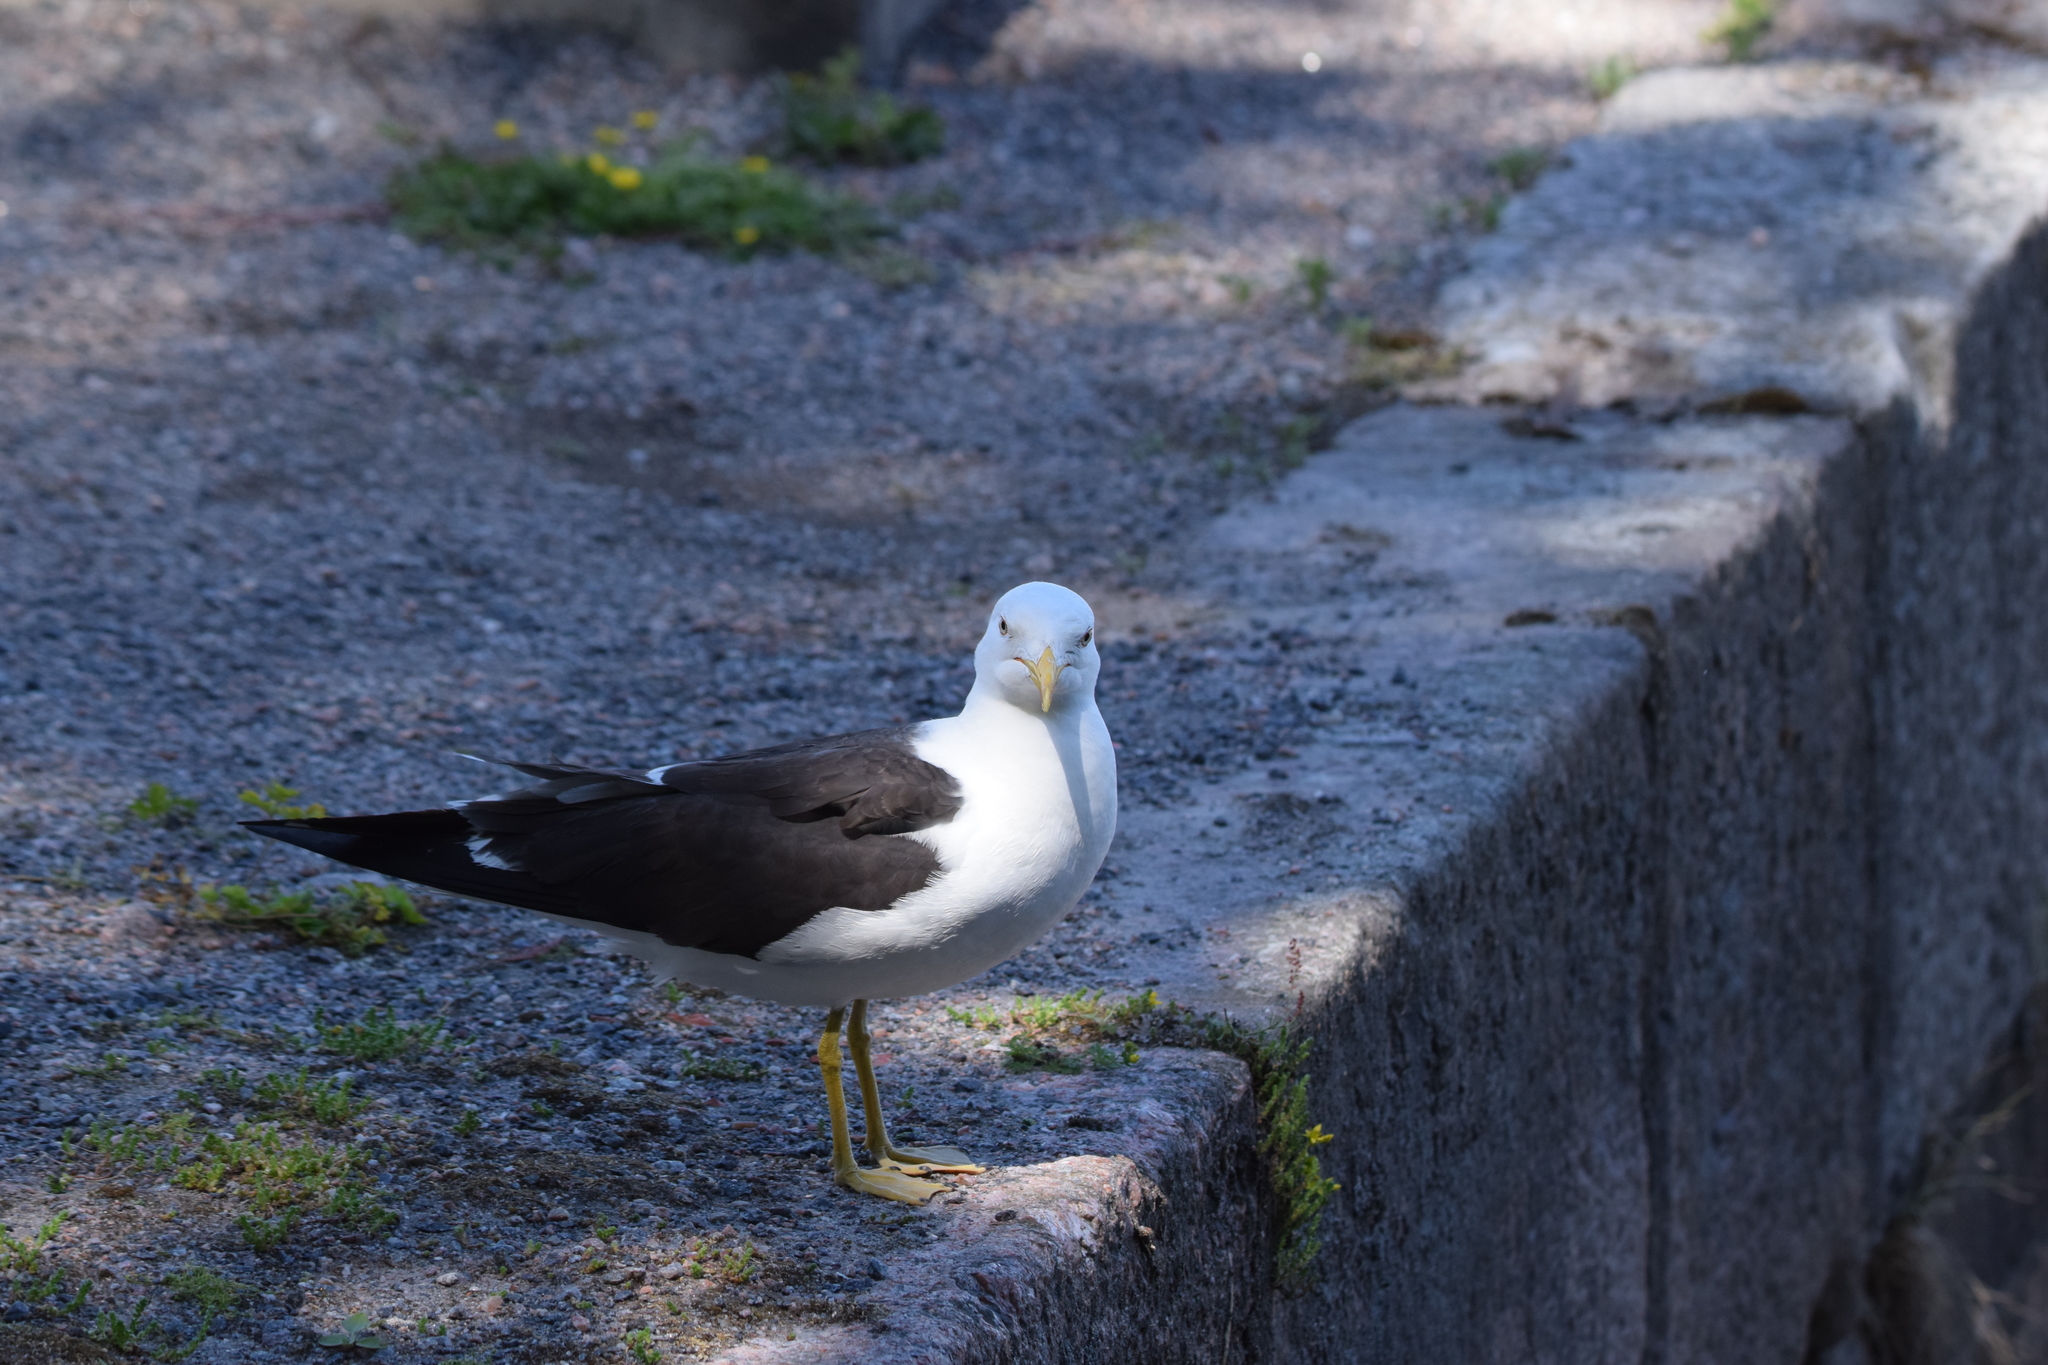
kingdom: Animalia
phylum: Chordata
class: Aves
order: Charadriiformes
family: Laridae
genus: Larus
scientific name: Larus fuscus
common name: Lesser black-backed gull
